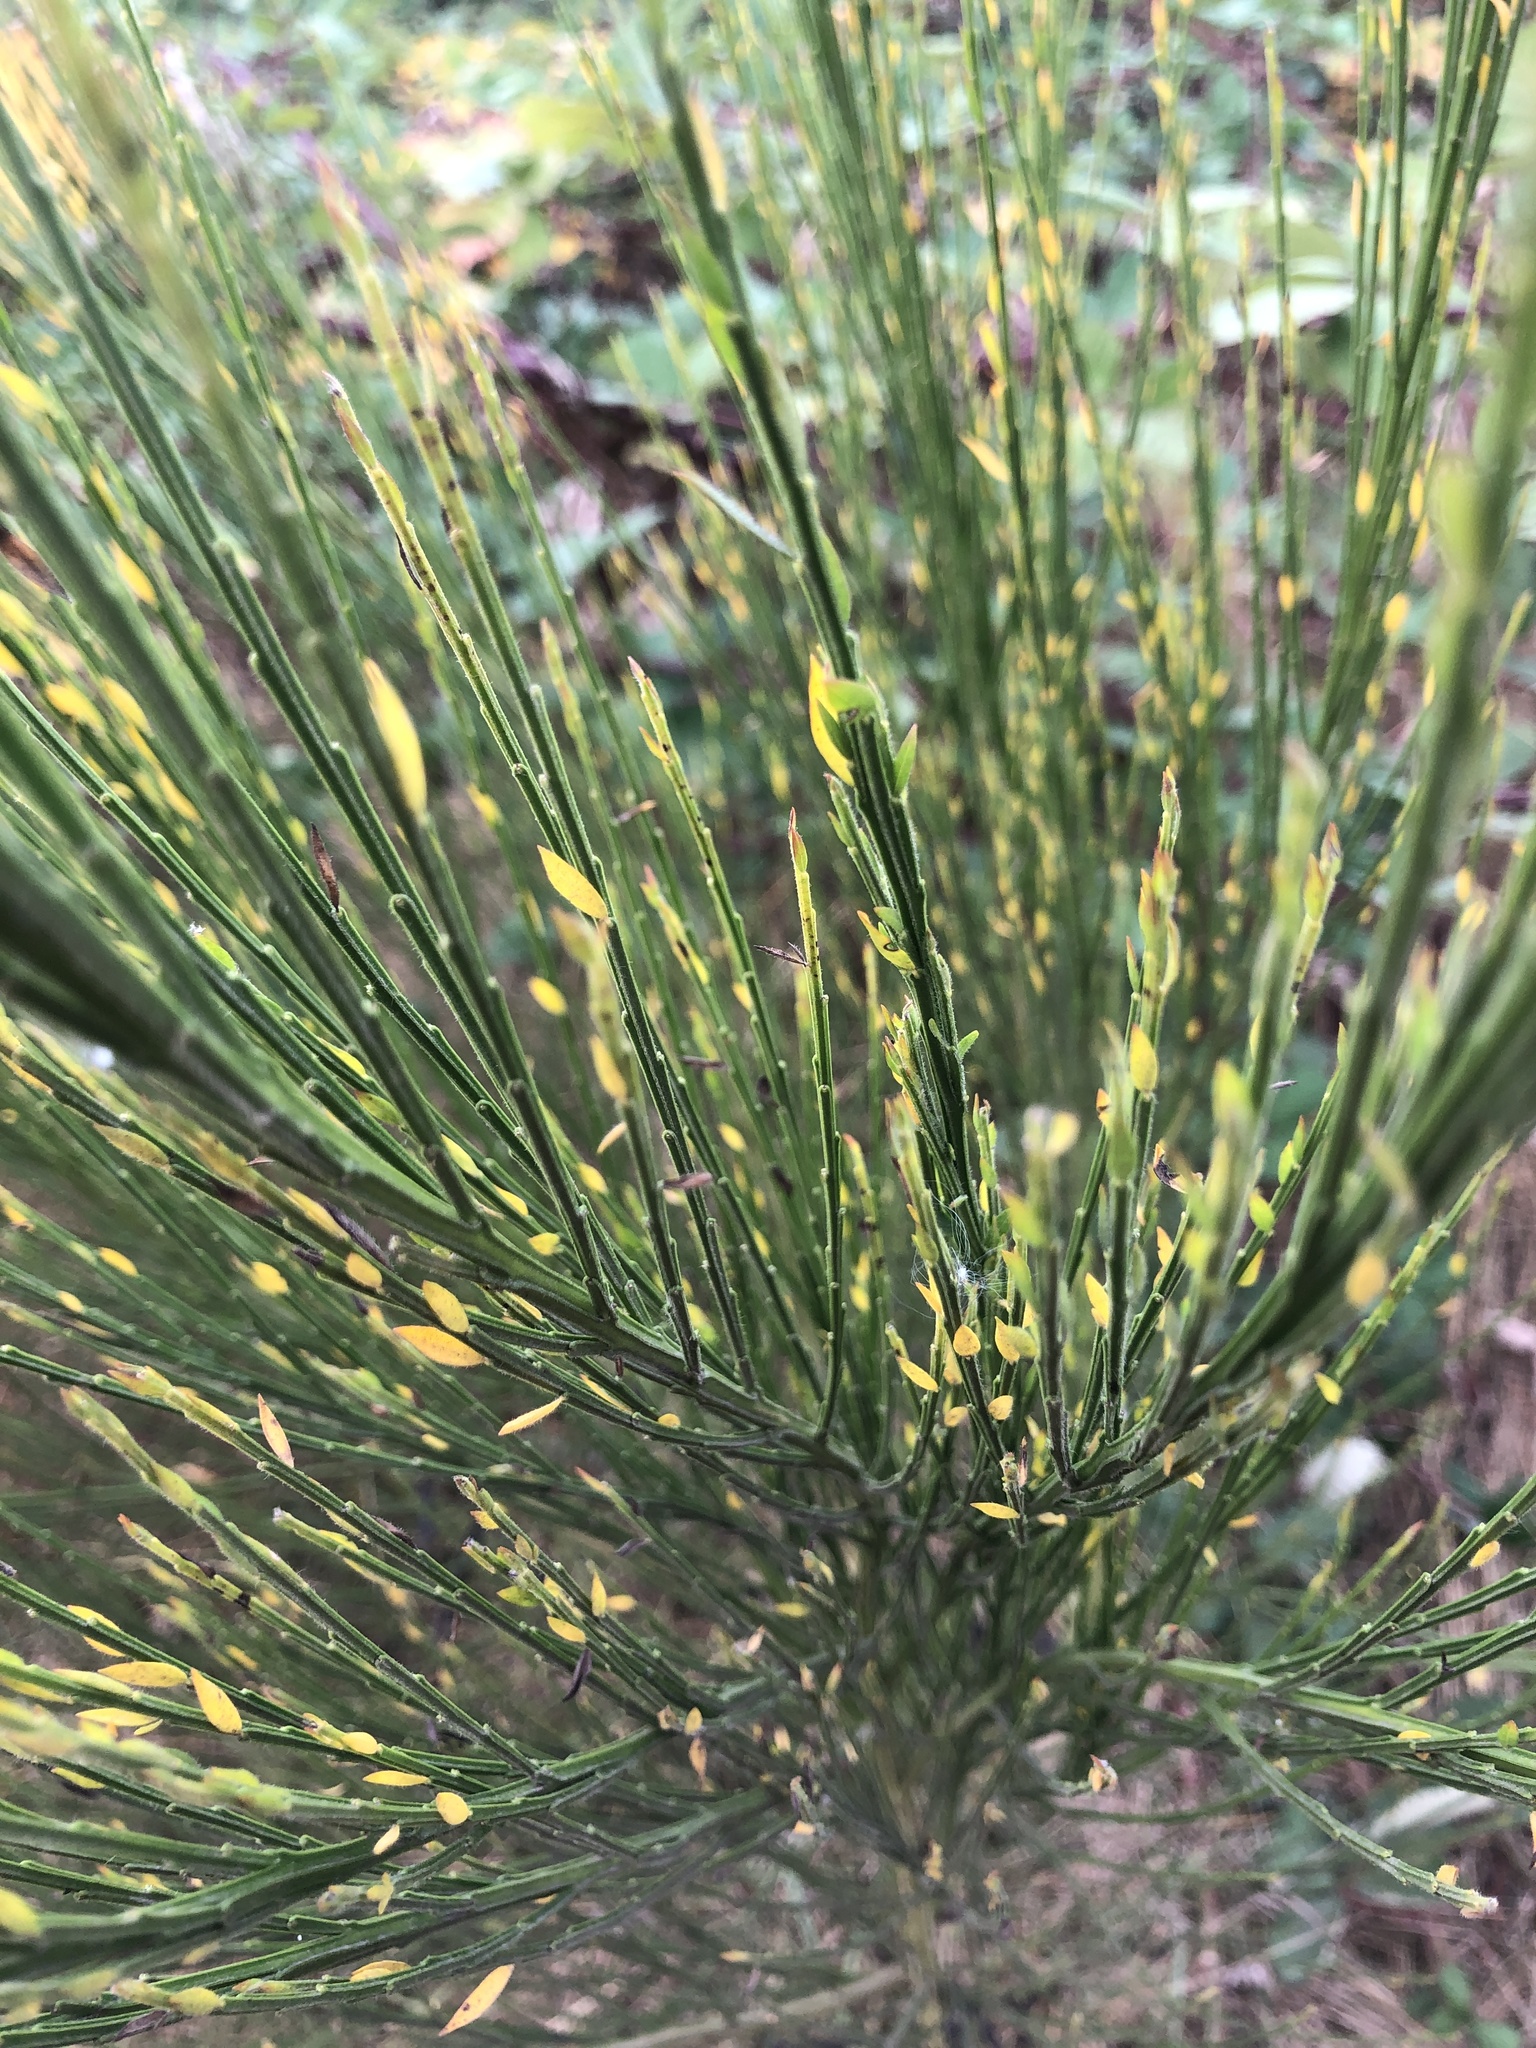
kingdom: Plantae
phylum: Tracheophyta
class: Magnoliopsida
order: Fabales
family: Fabaceae
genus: Cytisus
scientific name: Cytisus scoparius
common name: Scotch broom
